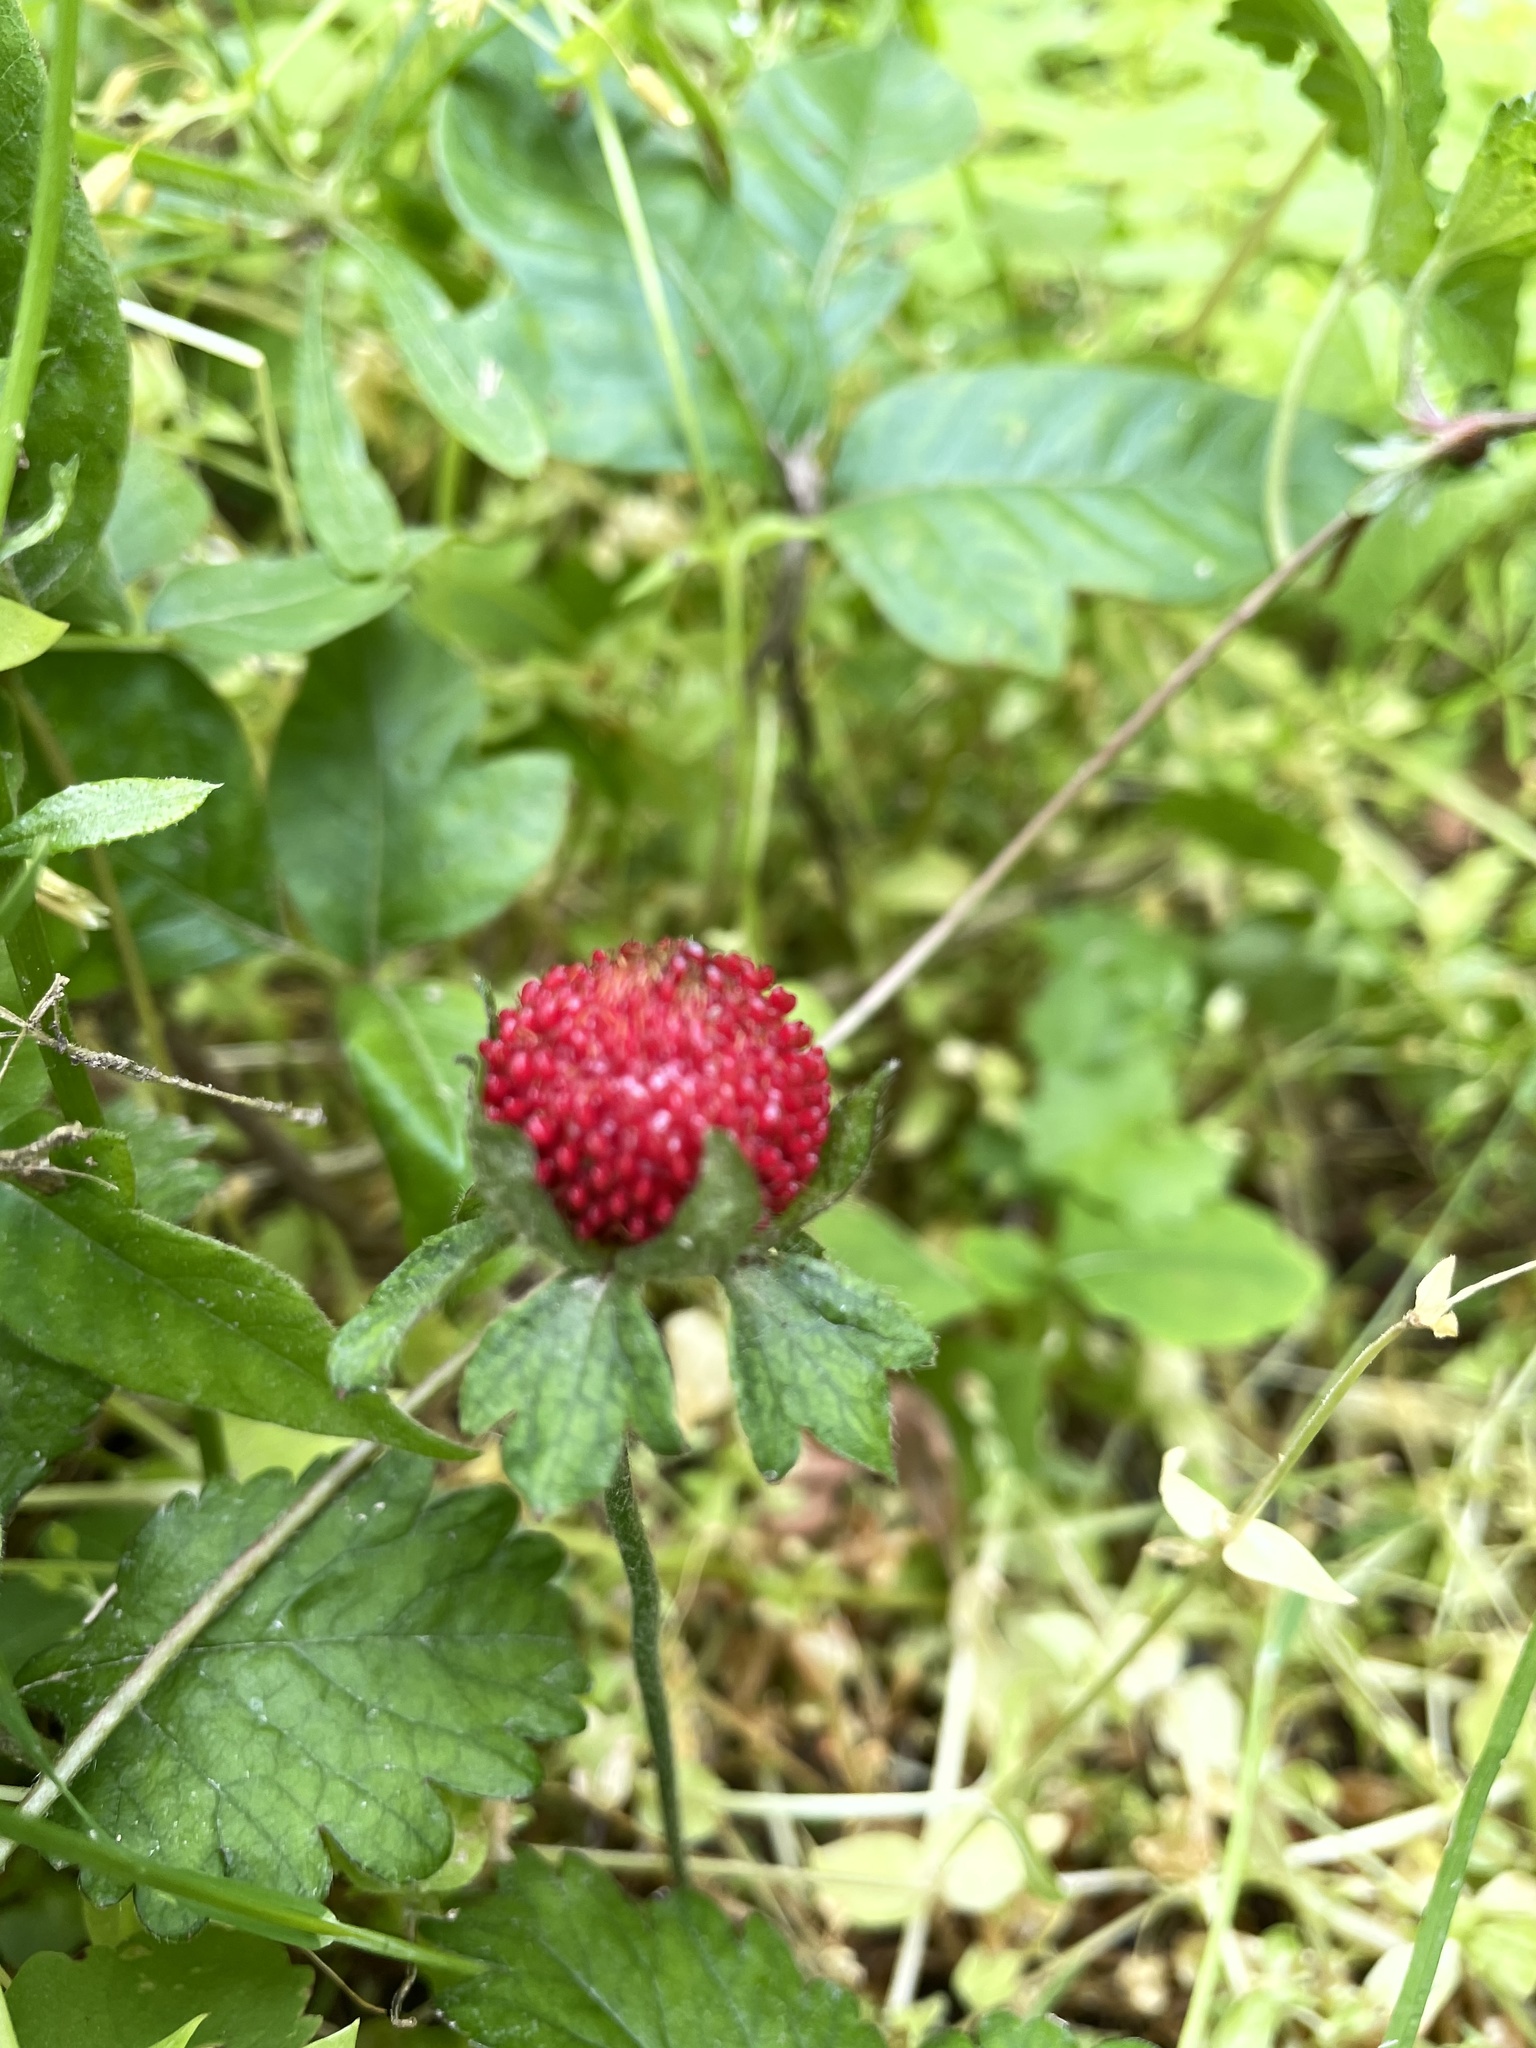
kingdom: Plantae
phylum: Tracheophyta
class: Magnoliopsida
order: Rosales
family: Rosaceae
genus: Potentilla
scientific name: Potentilla indica
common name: Yellow-flowered strawberry
